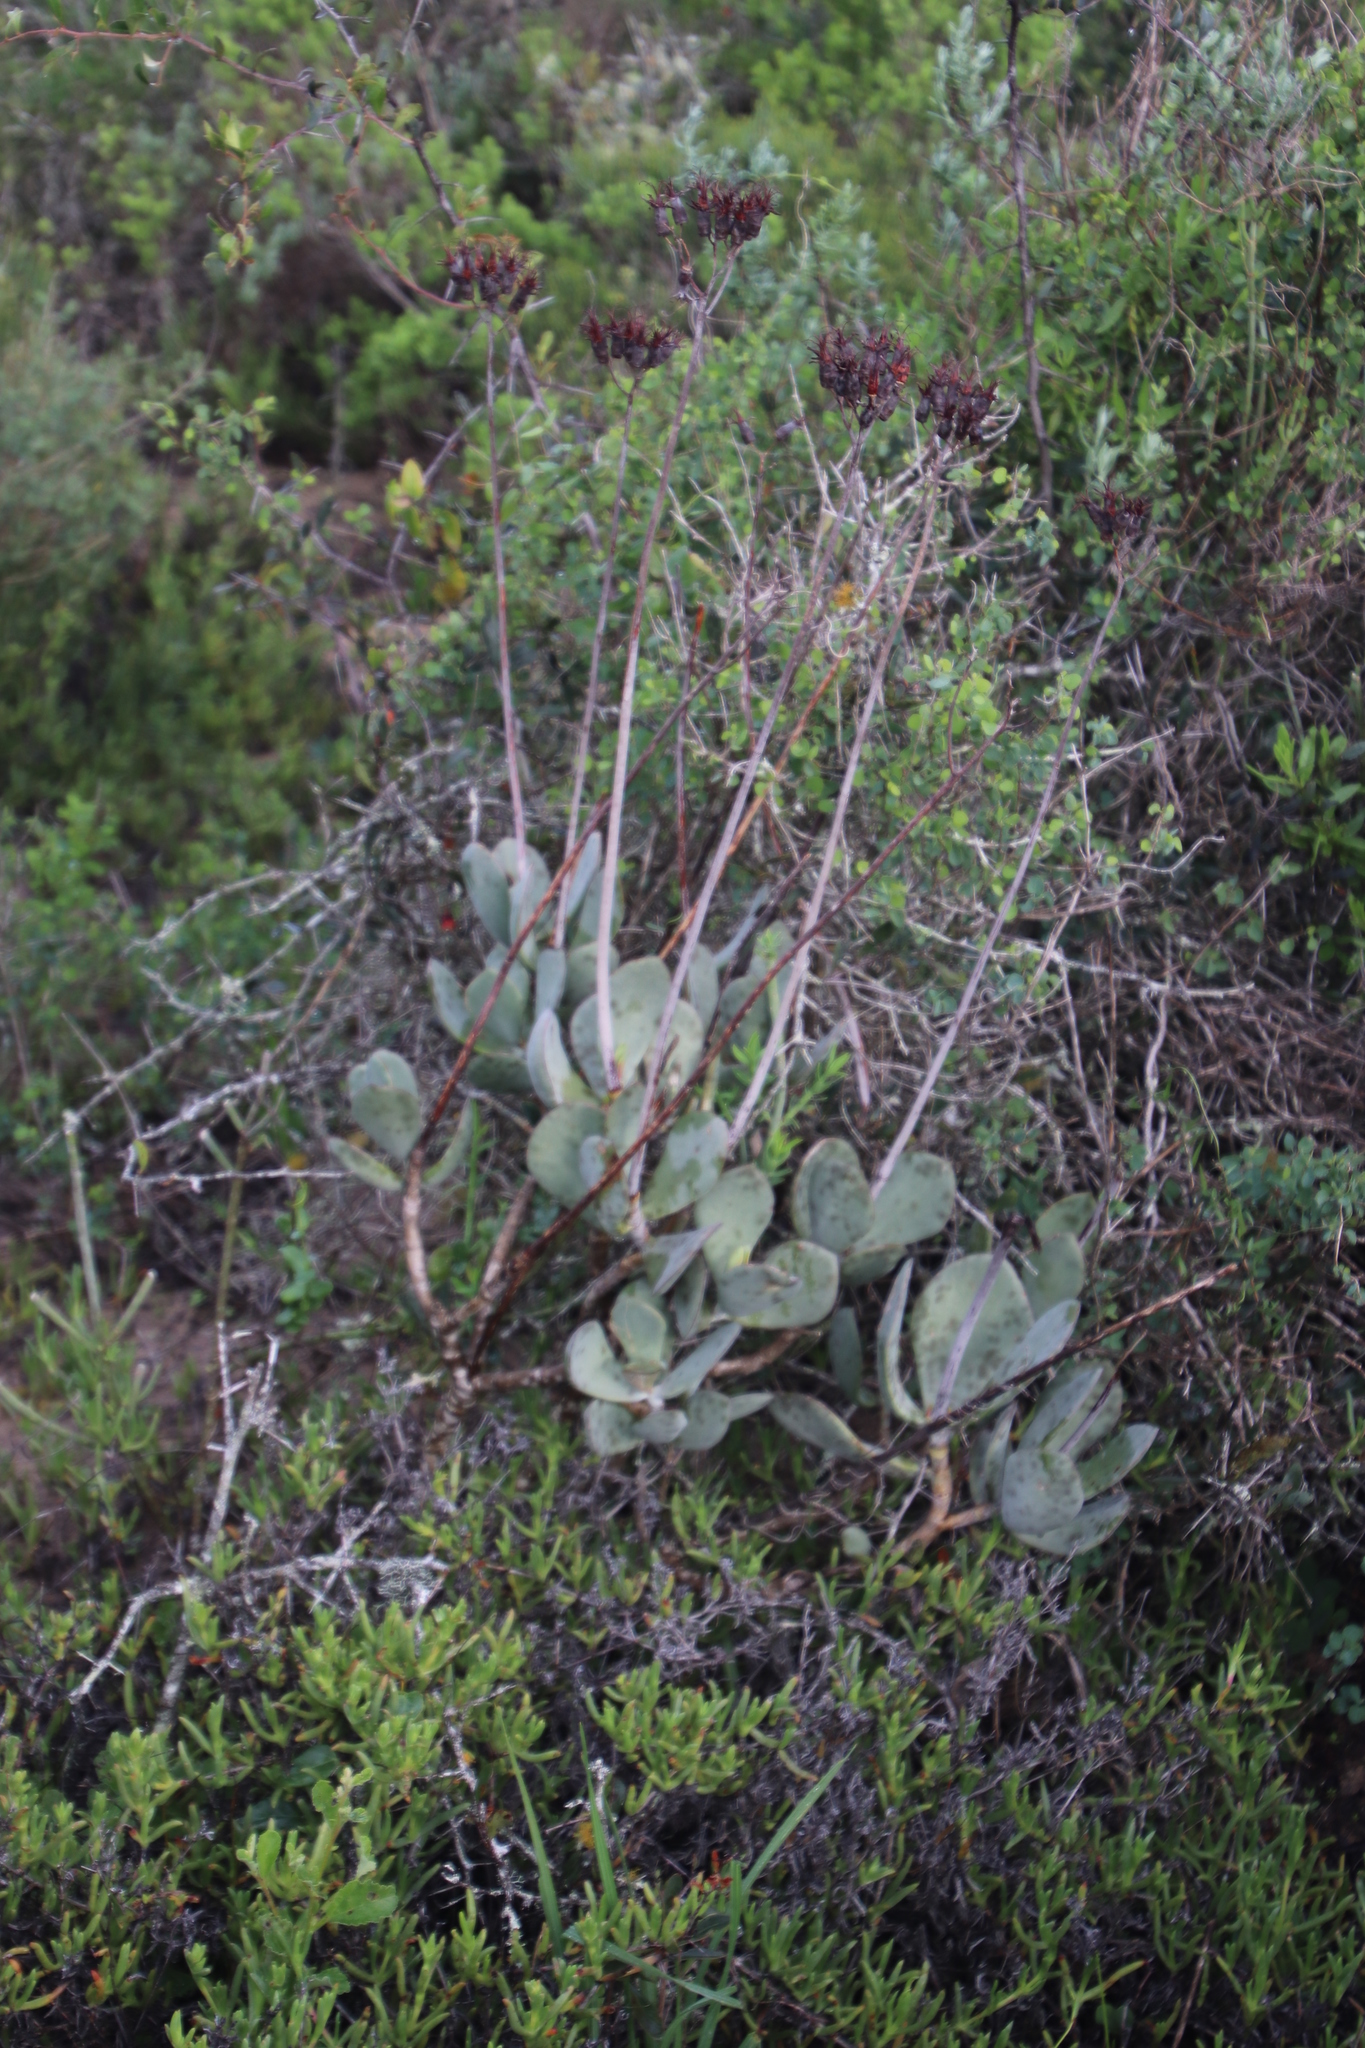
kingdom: Plantae
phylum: Tracheophyta
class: Magnoliopsida
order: Saxifragales
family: Crassulaceae
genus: Cotyledon
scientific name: Cotyledon orbiculata
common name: Pig's ear
